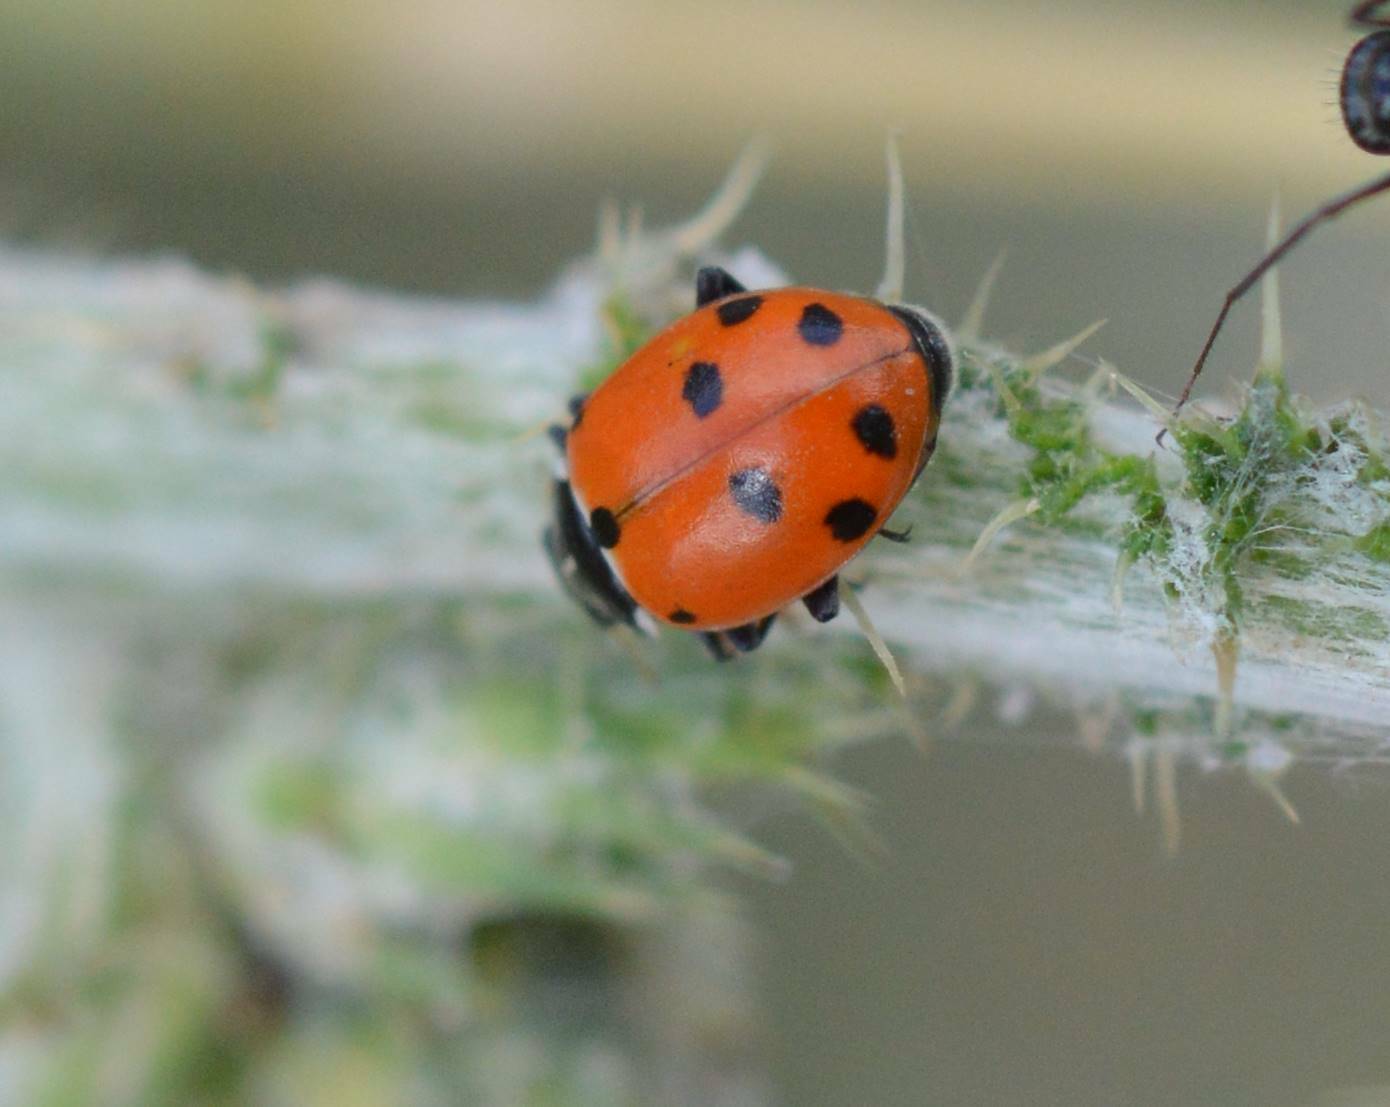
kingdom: Animalia
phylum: Arthropoda
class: Insecta
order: Coleoptera
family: Coccinellidae
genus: Hippodamia
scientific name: Hippodamia variegata
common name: Ladybird beetle
